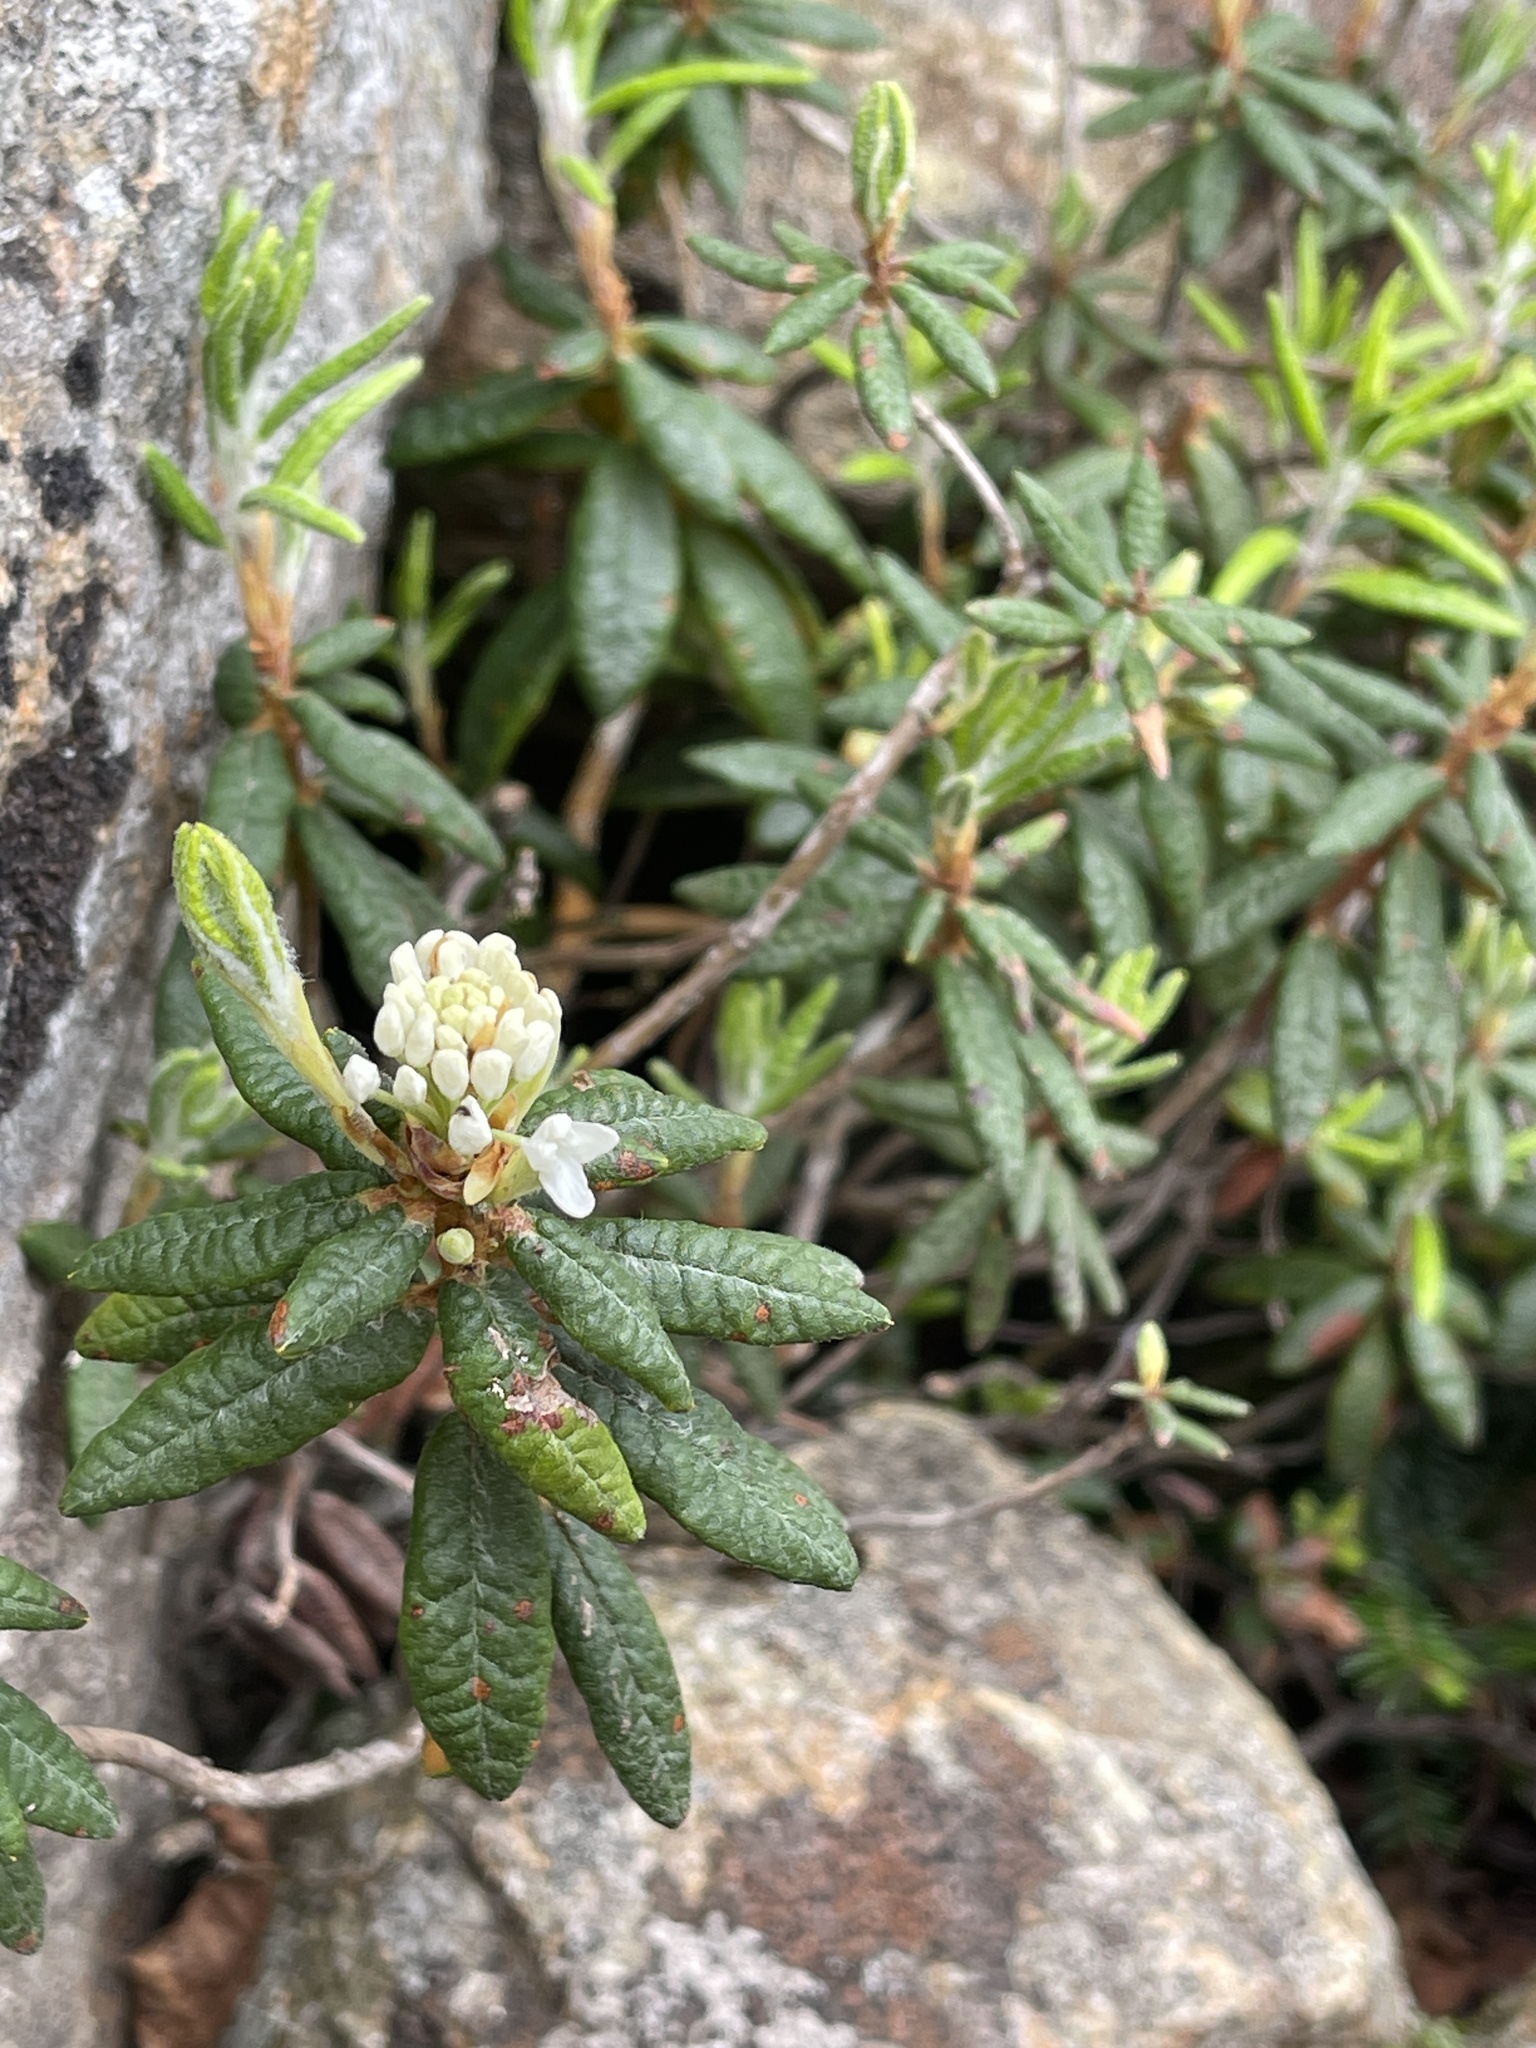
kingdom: Plantae
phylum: Tracheophyta
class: Magnoliopsida
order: Ericales
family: Ericaceae
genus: Rhododendron
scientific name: Rhododendron groenlandicum
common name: Bog labrador tea
